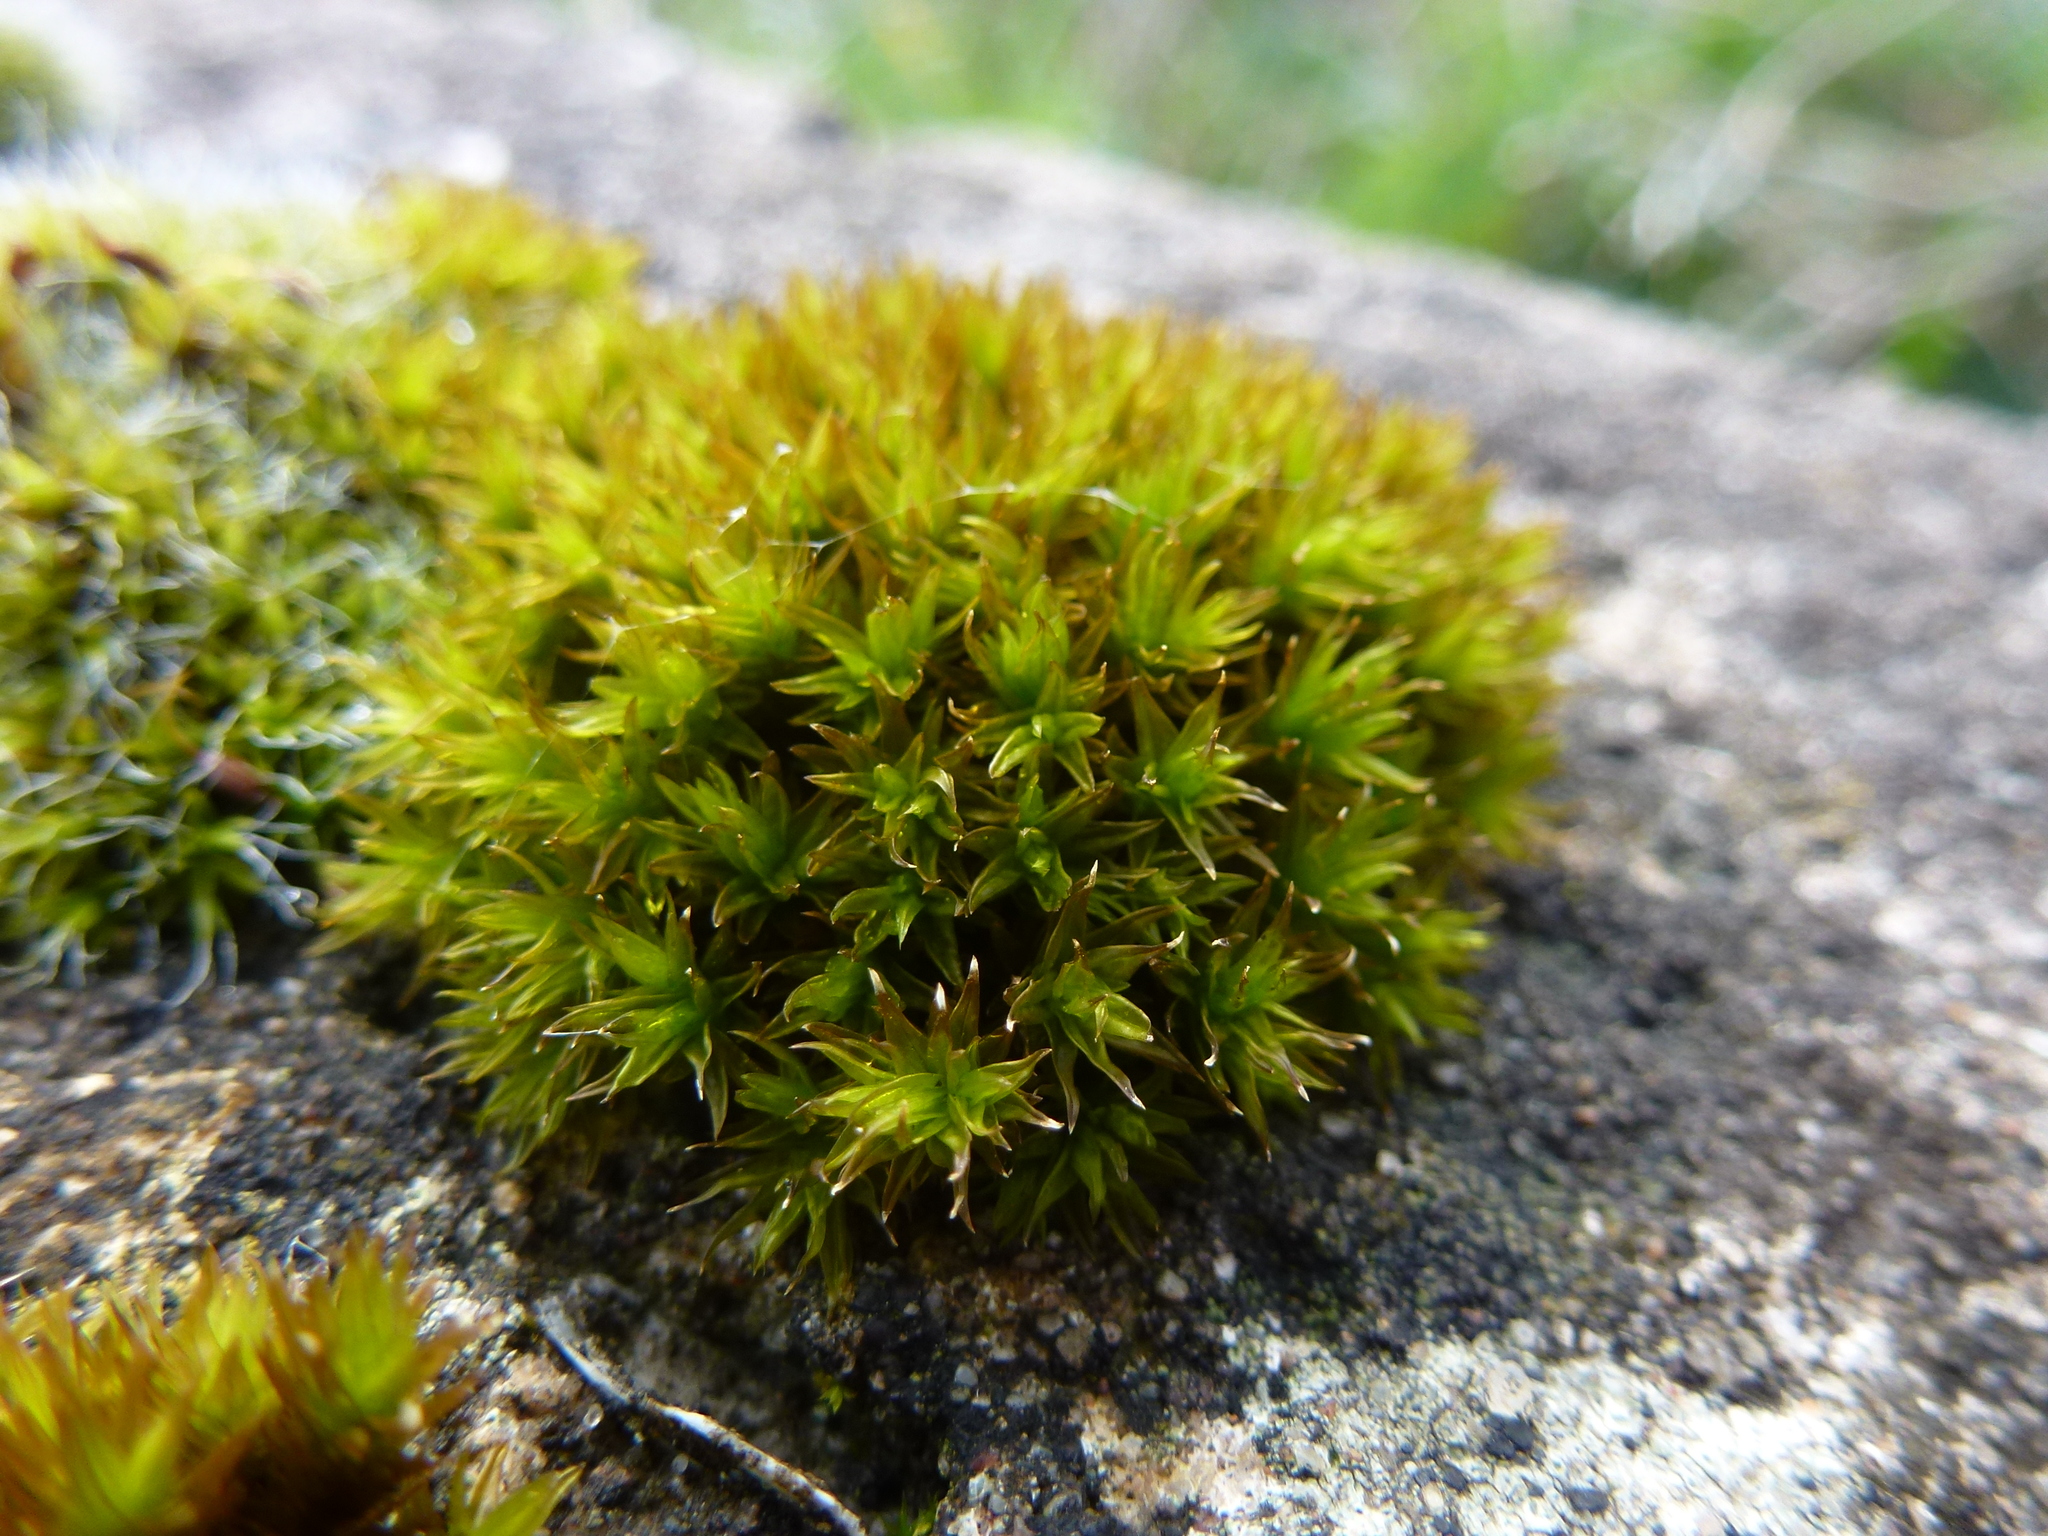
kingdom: Plantae
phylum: Bryophyta
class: Bryopsida
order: Orthotrichales
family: Orthotrichaceae
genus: Orthotrichum
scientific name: Orthotrichum anomalum
